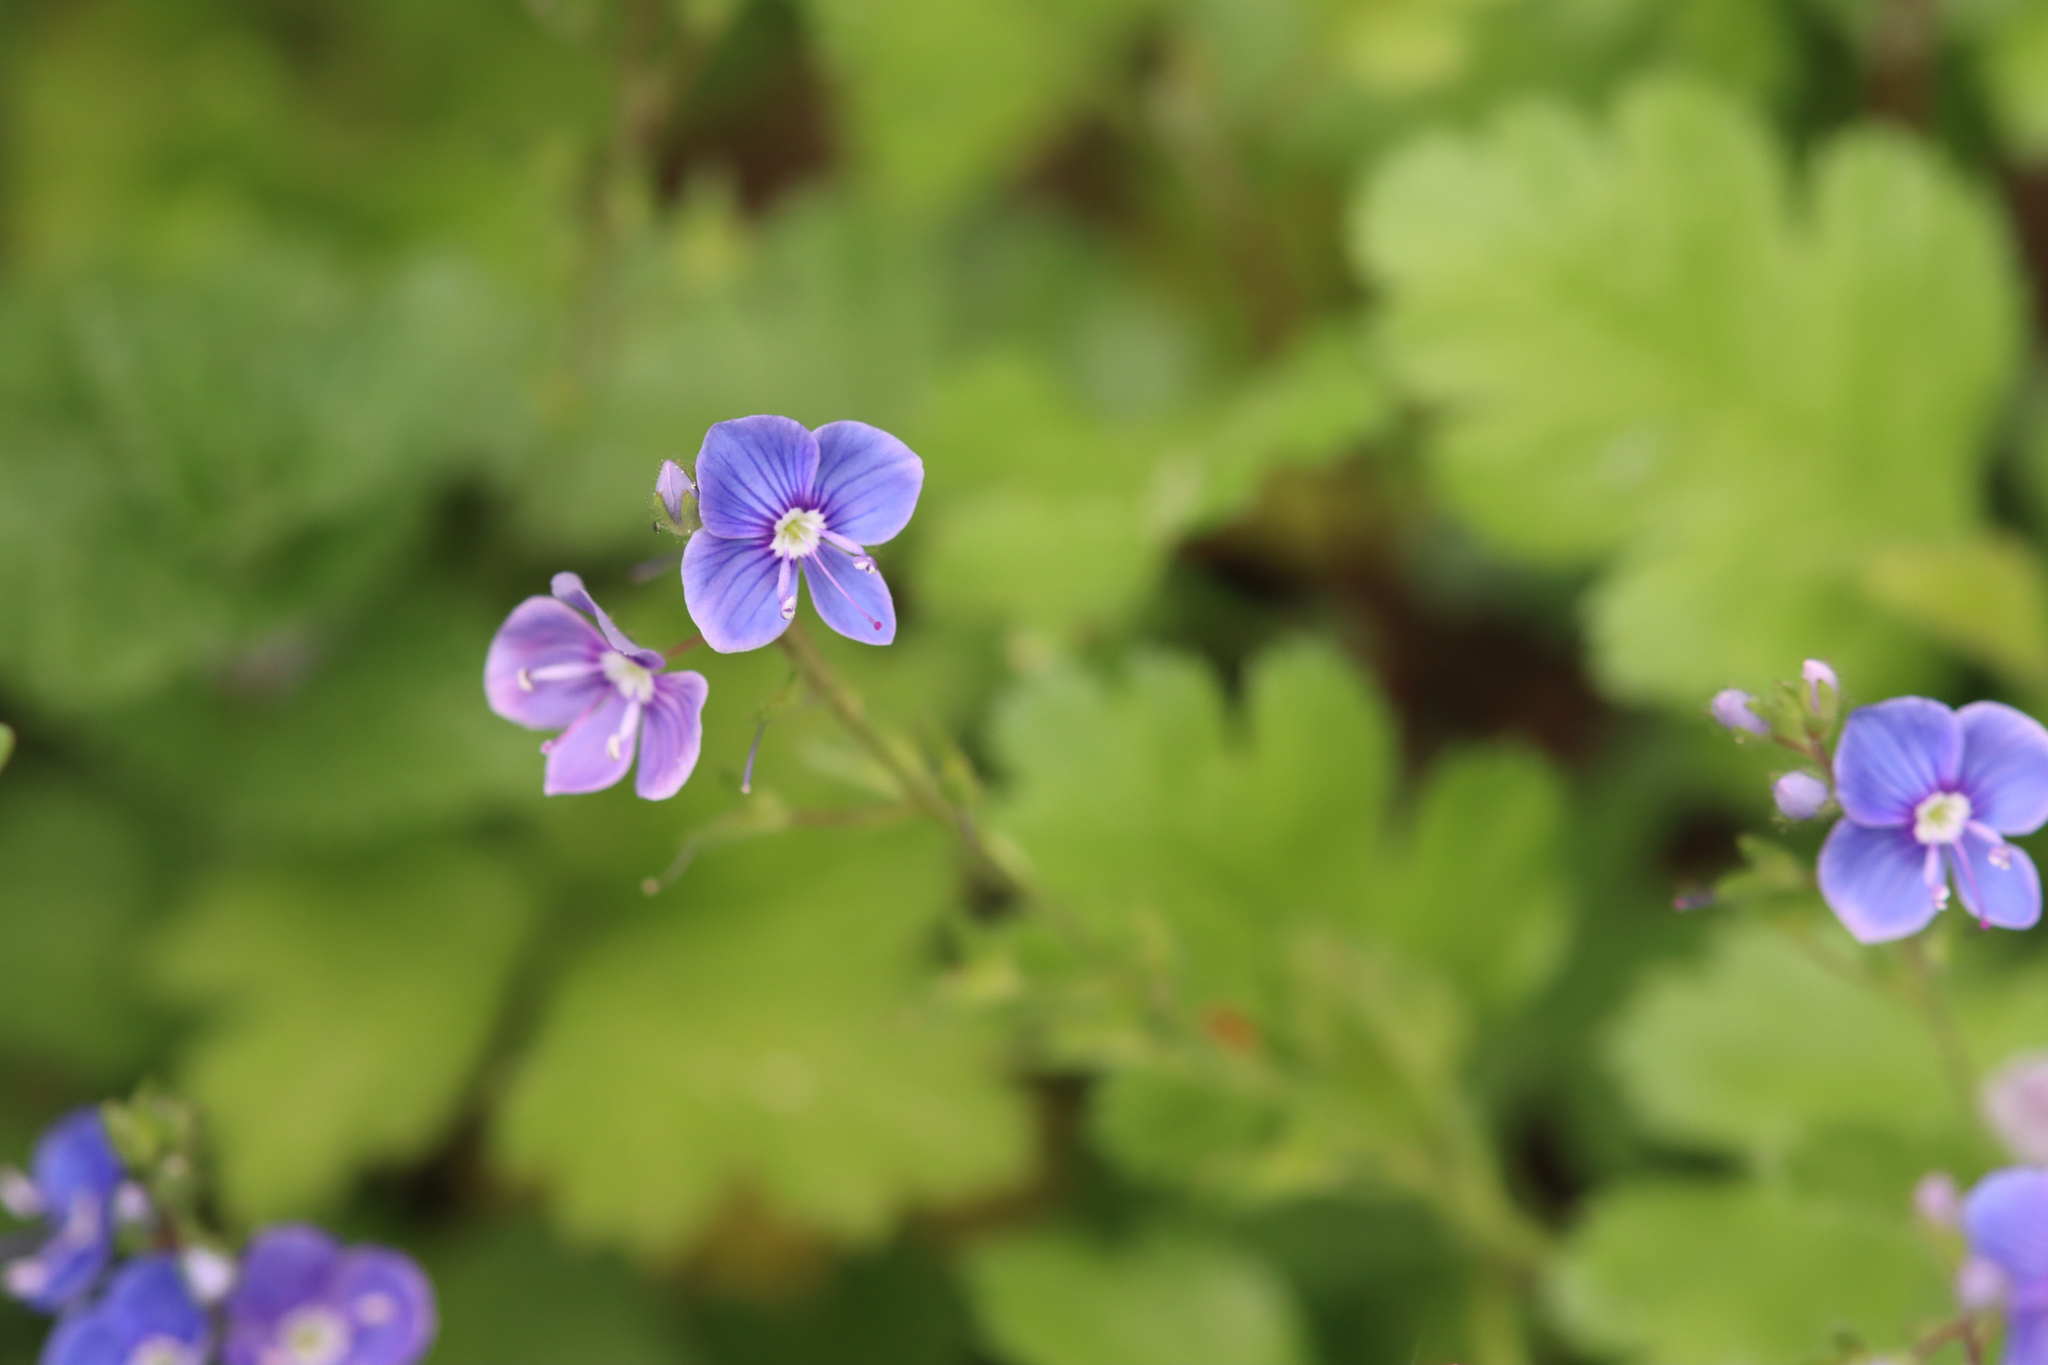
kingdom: Plantae
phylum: Tracheophyta
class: Magnoliopsida
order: Lamiales
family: Plantaginaceae
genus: Veronica
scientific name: Veronica chamaedrys
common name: Germander speedwell
